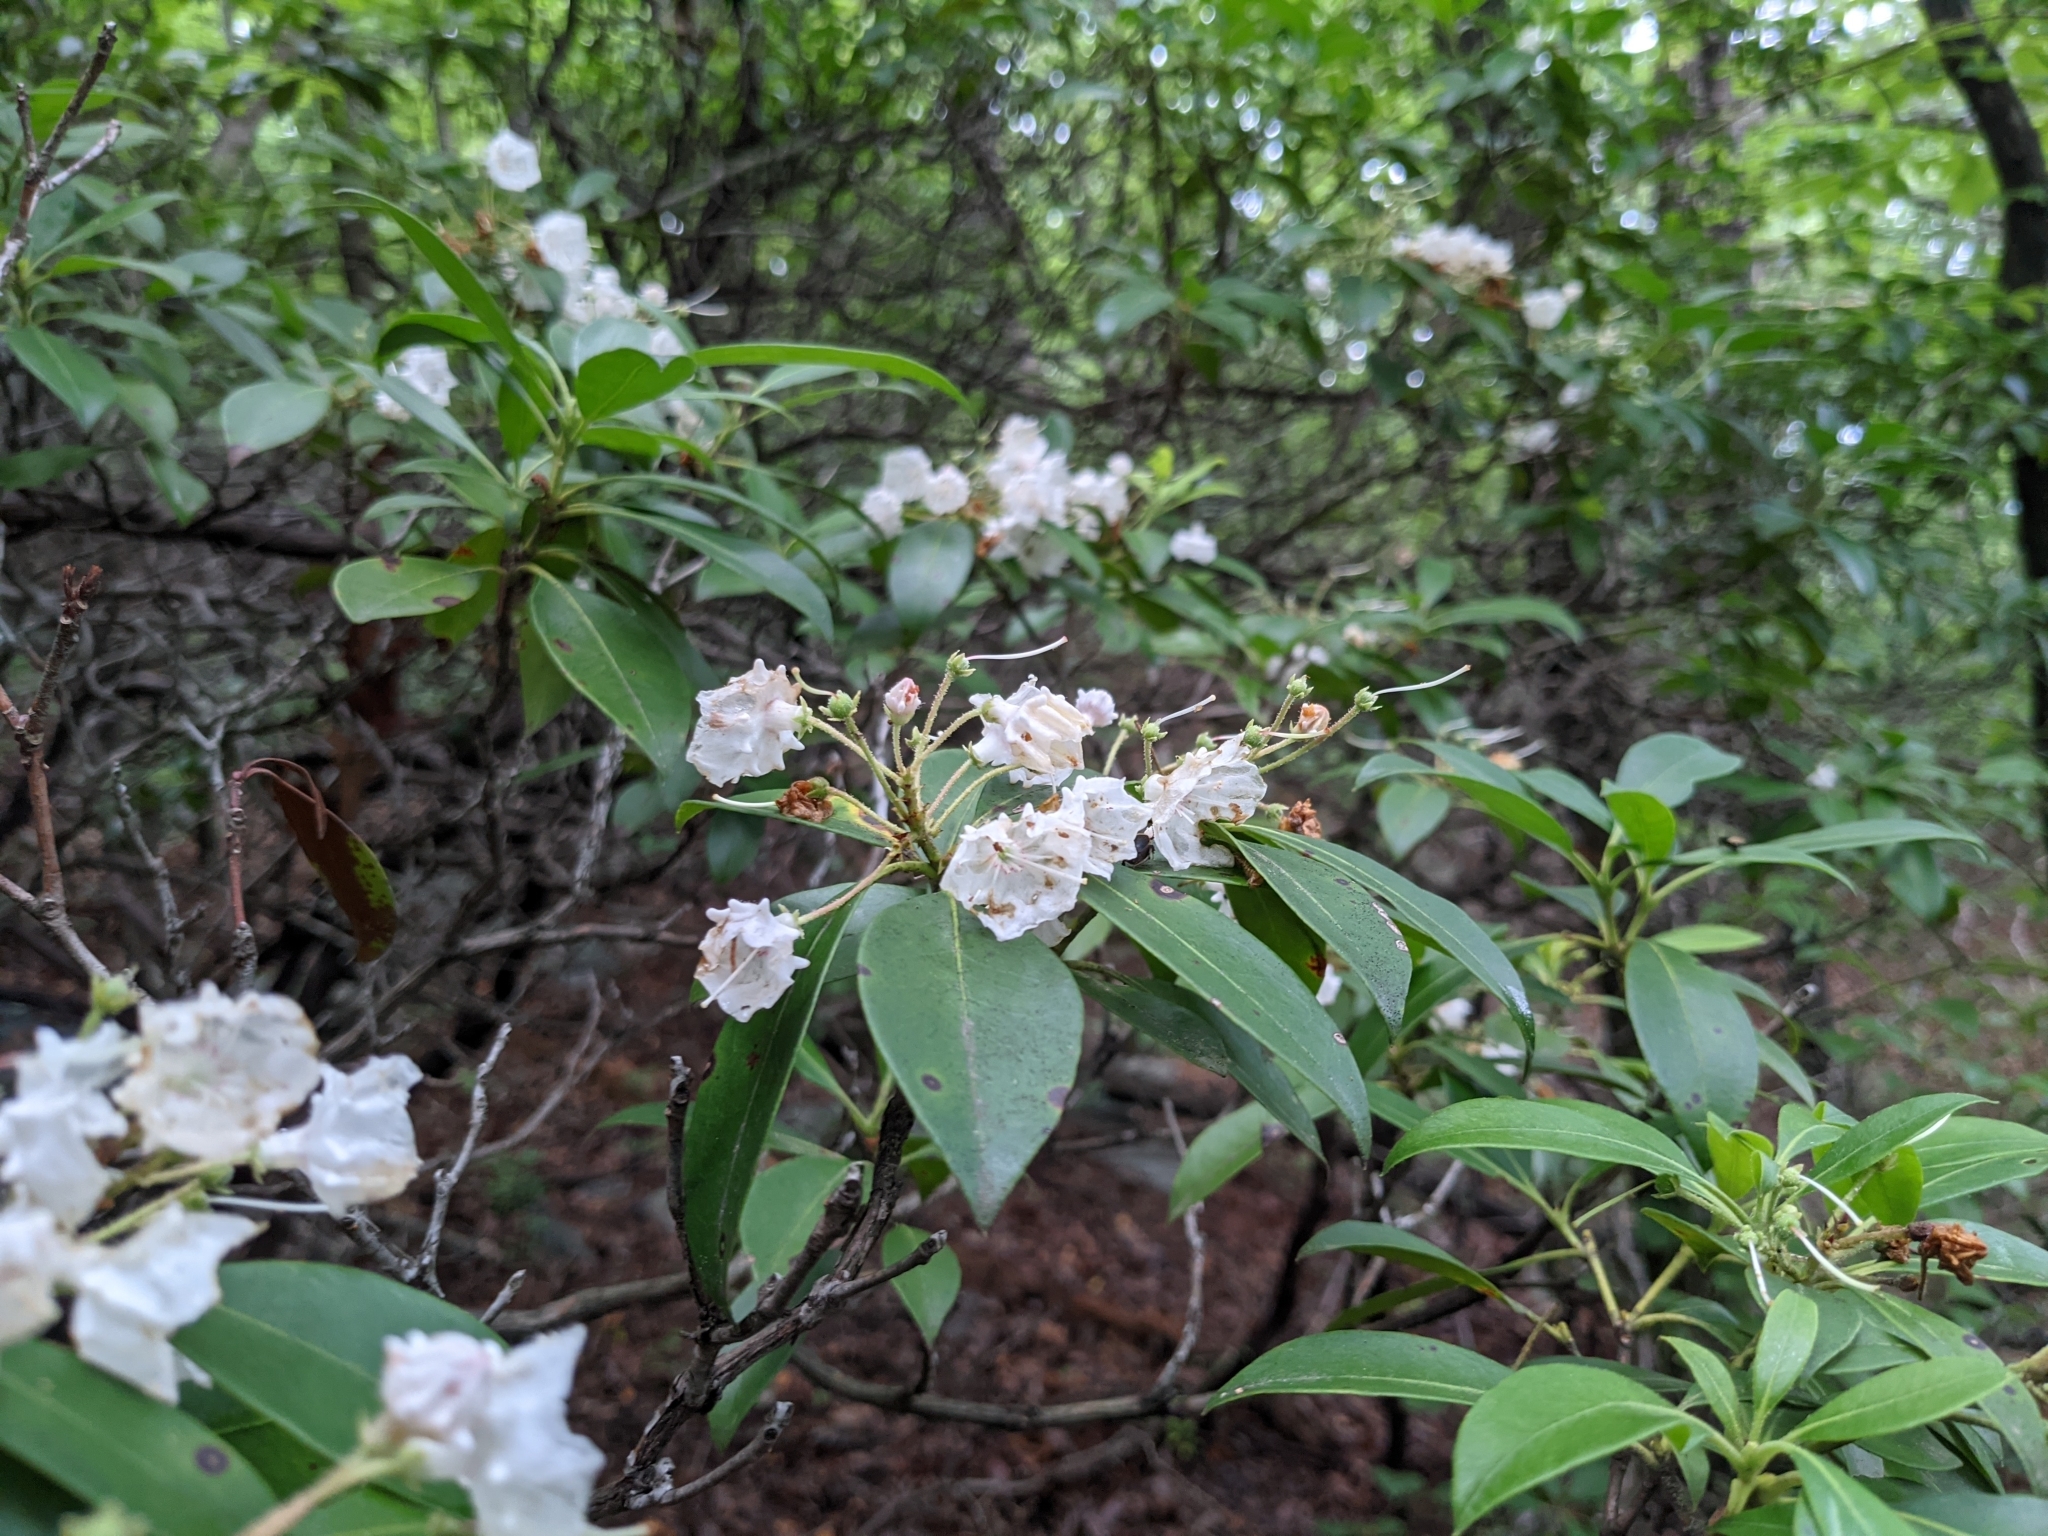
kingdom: Plantae
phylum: Tracheophyta
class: Magnoliopsida
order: Ericales
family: Ericaceae
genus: Kalmia
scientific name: Kalmia latifolia
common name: Mountain-laurel
